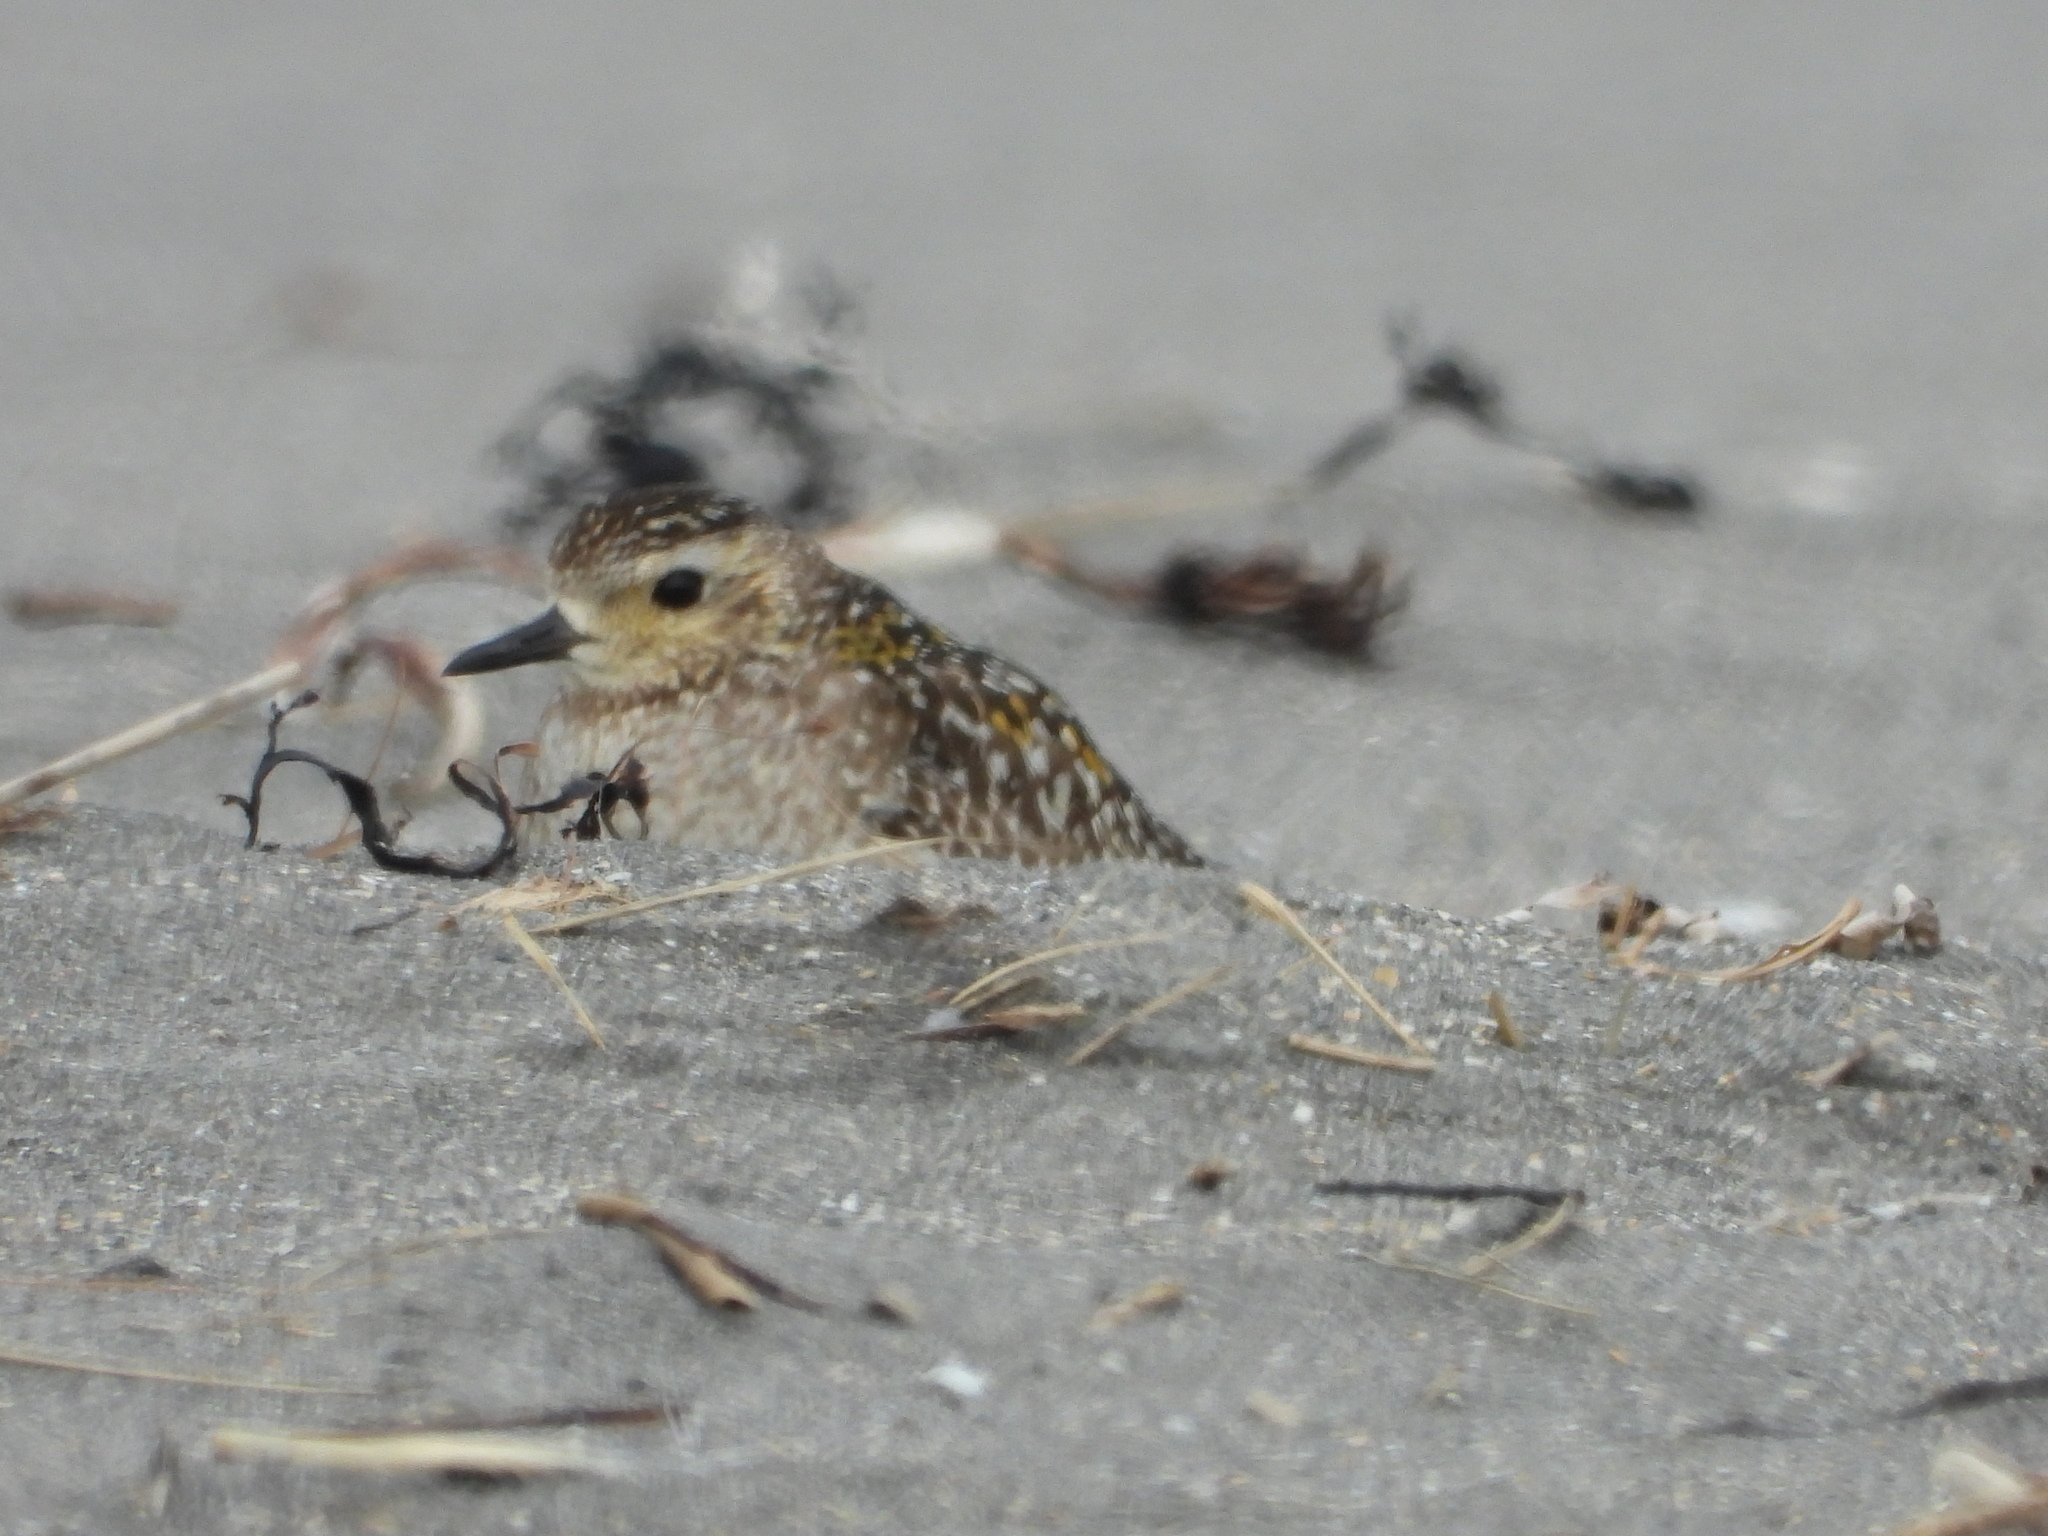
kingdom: Animalia
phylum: Chordata
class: Aves
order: Charadriiformes
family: Charadriidae
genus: Pluvialis
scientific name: Pluvialis fulva
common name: Pacific golden plover
